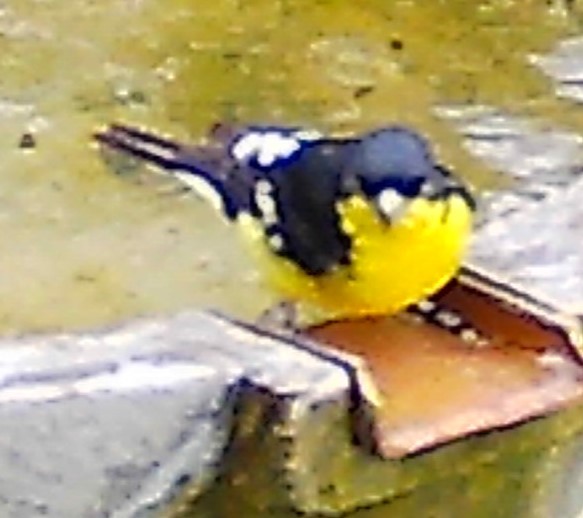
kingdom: Animalia
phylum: Chordata
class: Aves
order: Passeriformes
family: Fringillidae
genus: Spinus
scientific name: Spinus psaltria
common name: Lesser goldfinch
